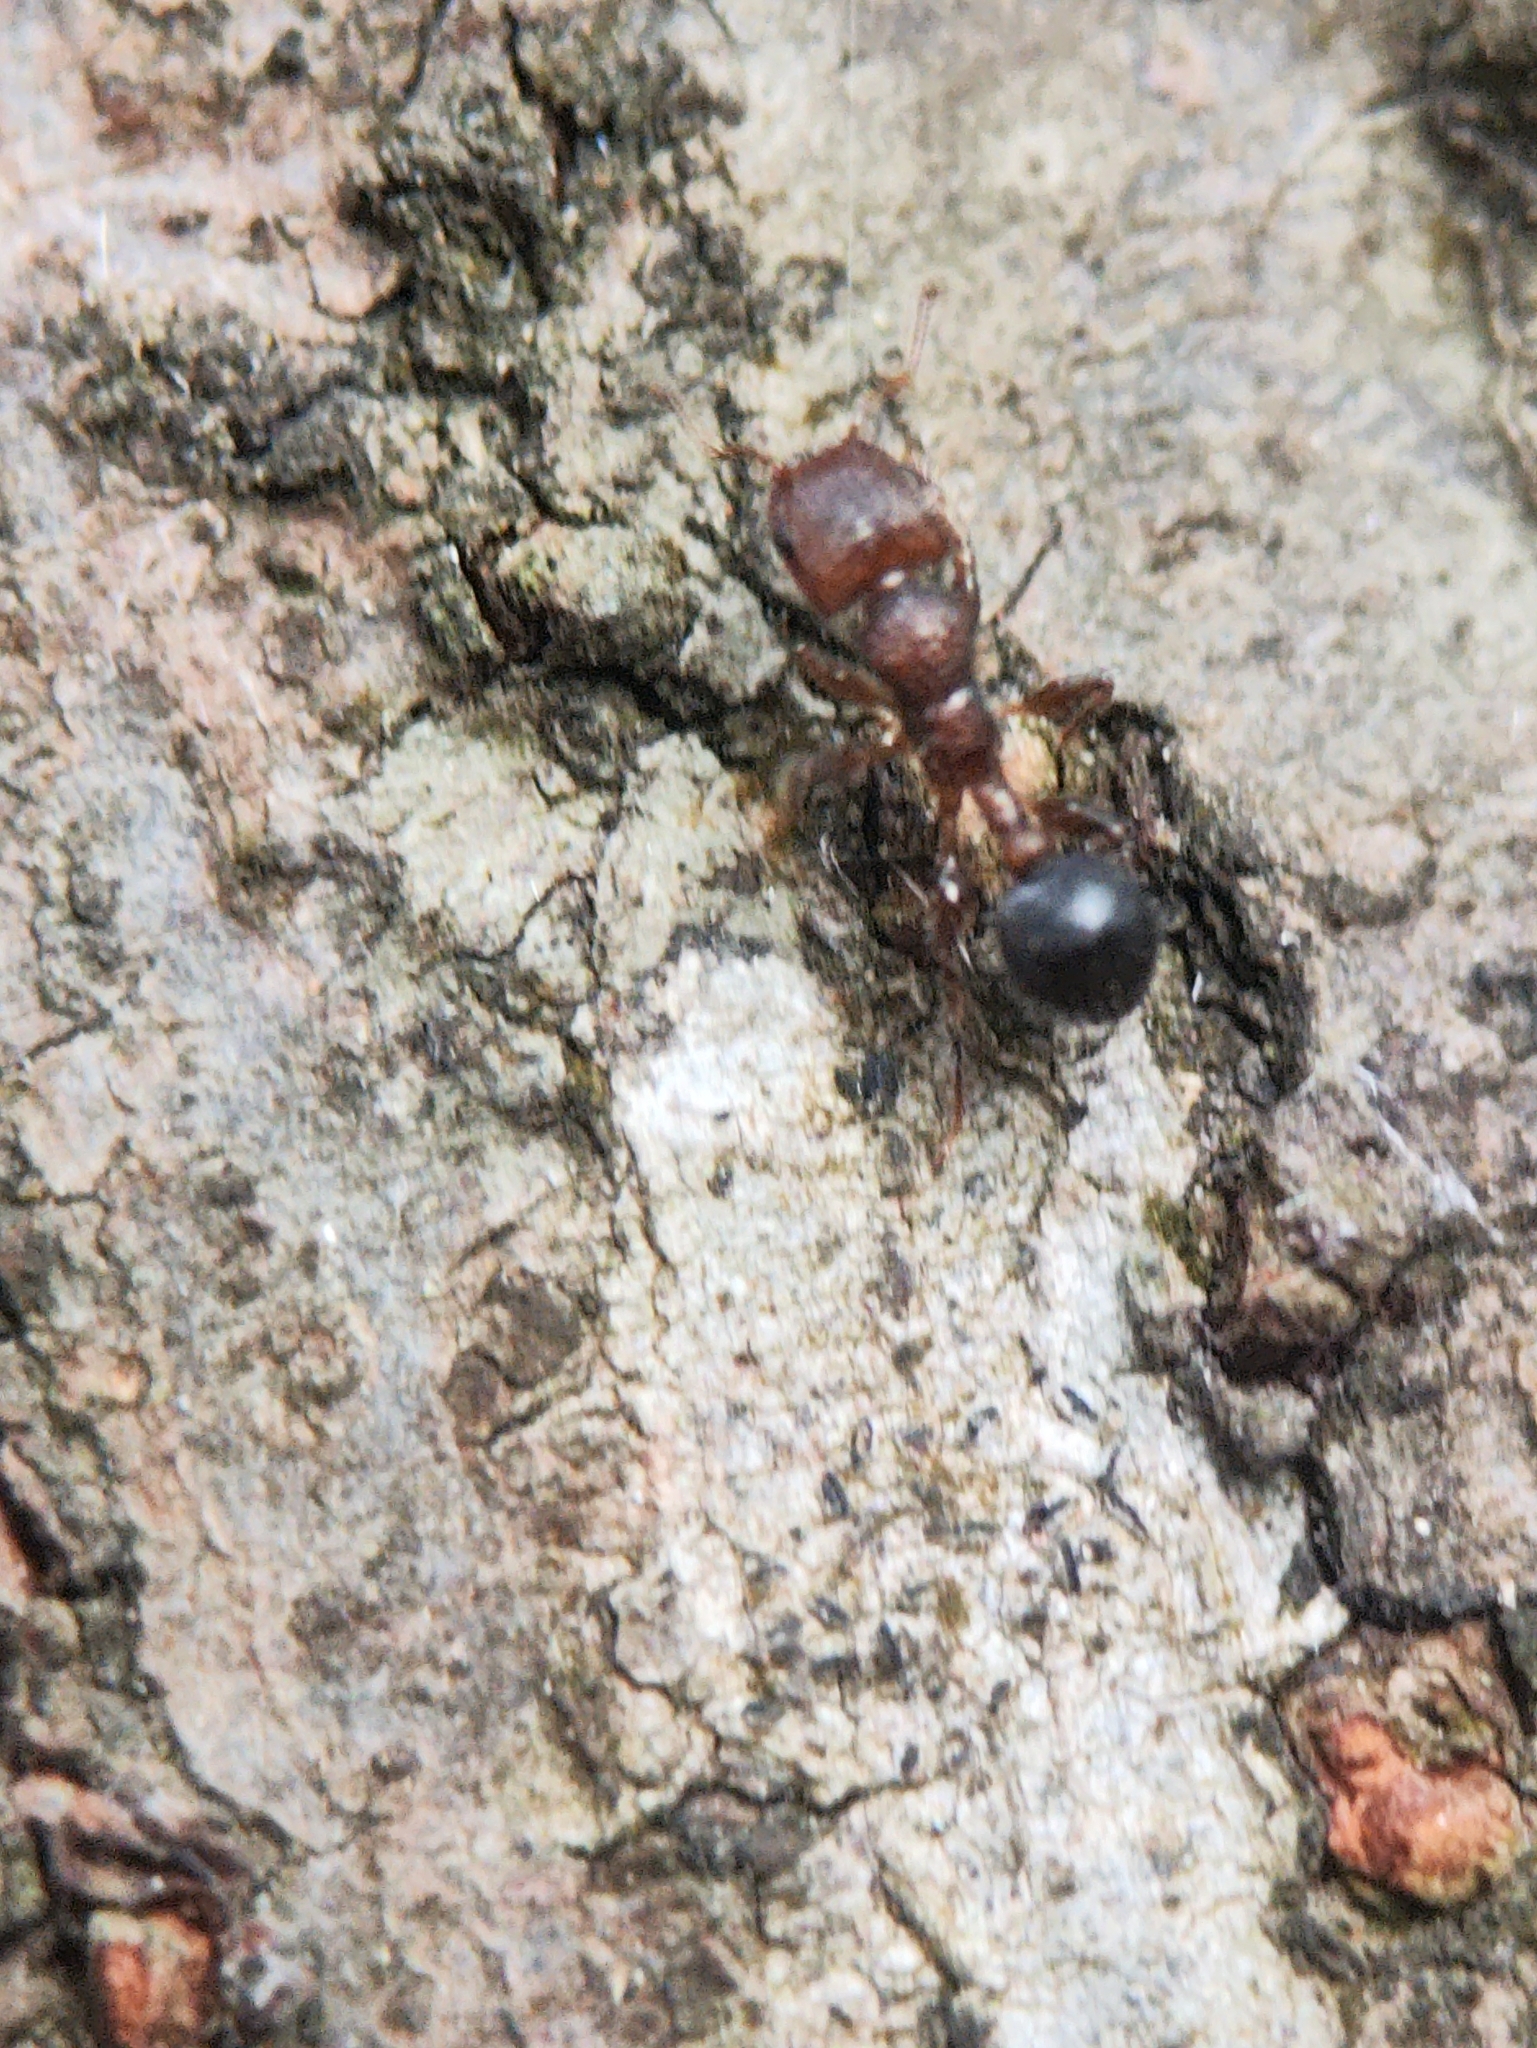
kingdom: Animalia
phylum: Arthropoda
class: Insecta
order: Hymenoptera
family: Formicidae
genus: Dilobocondyla
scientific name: Dilobocondyla
